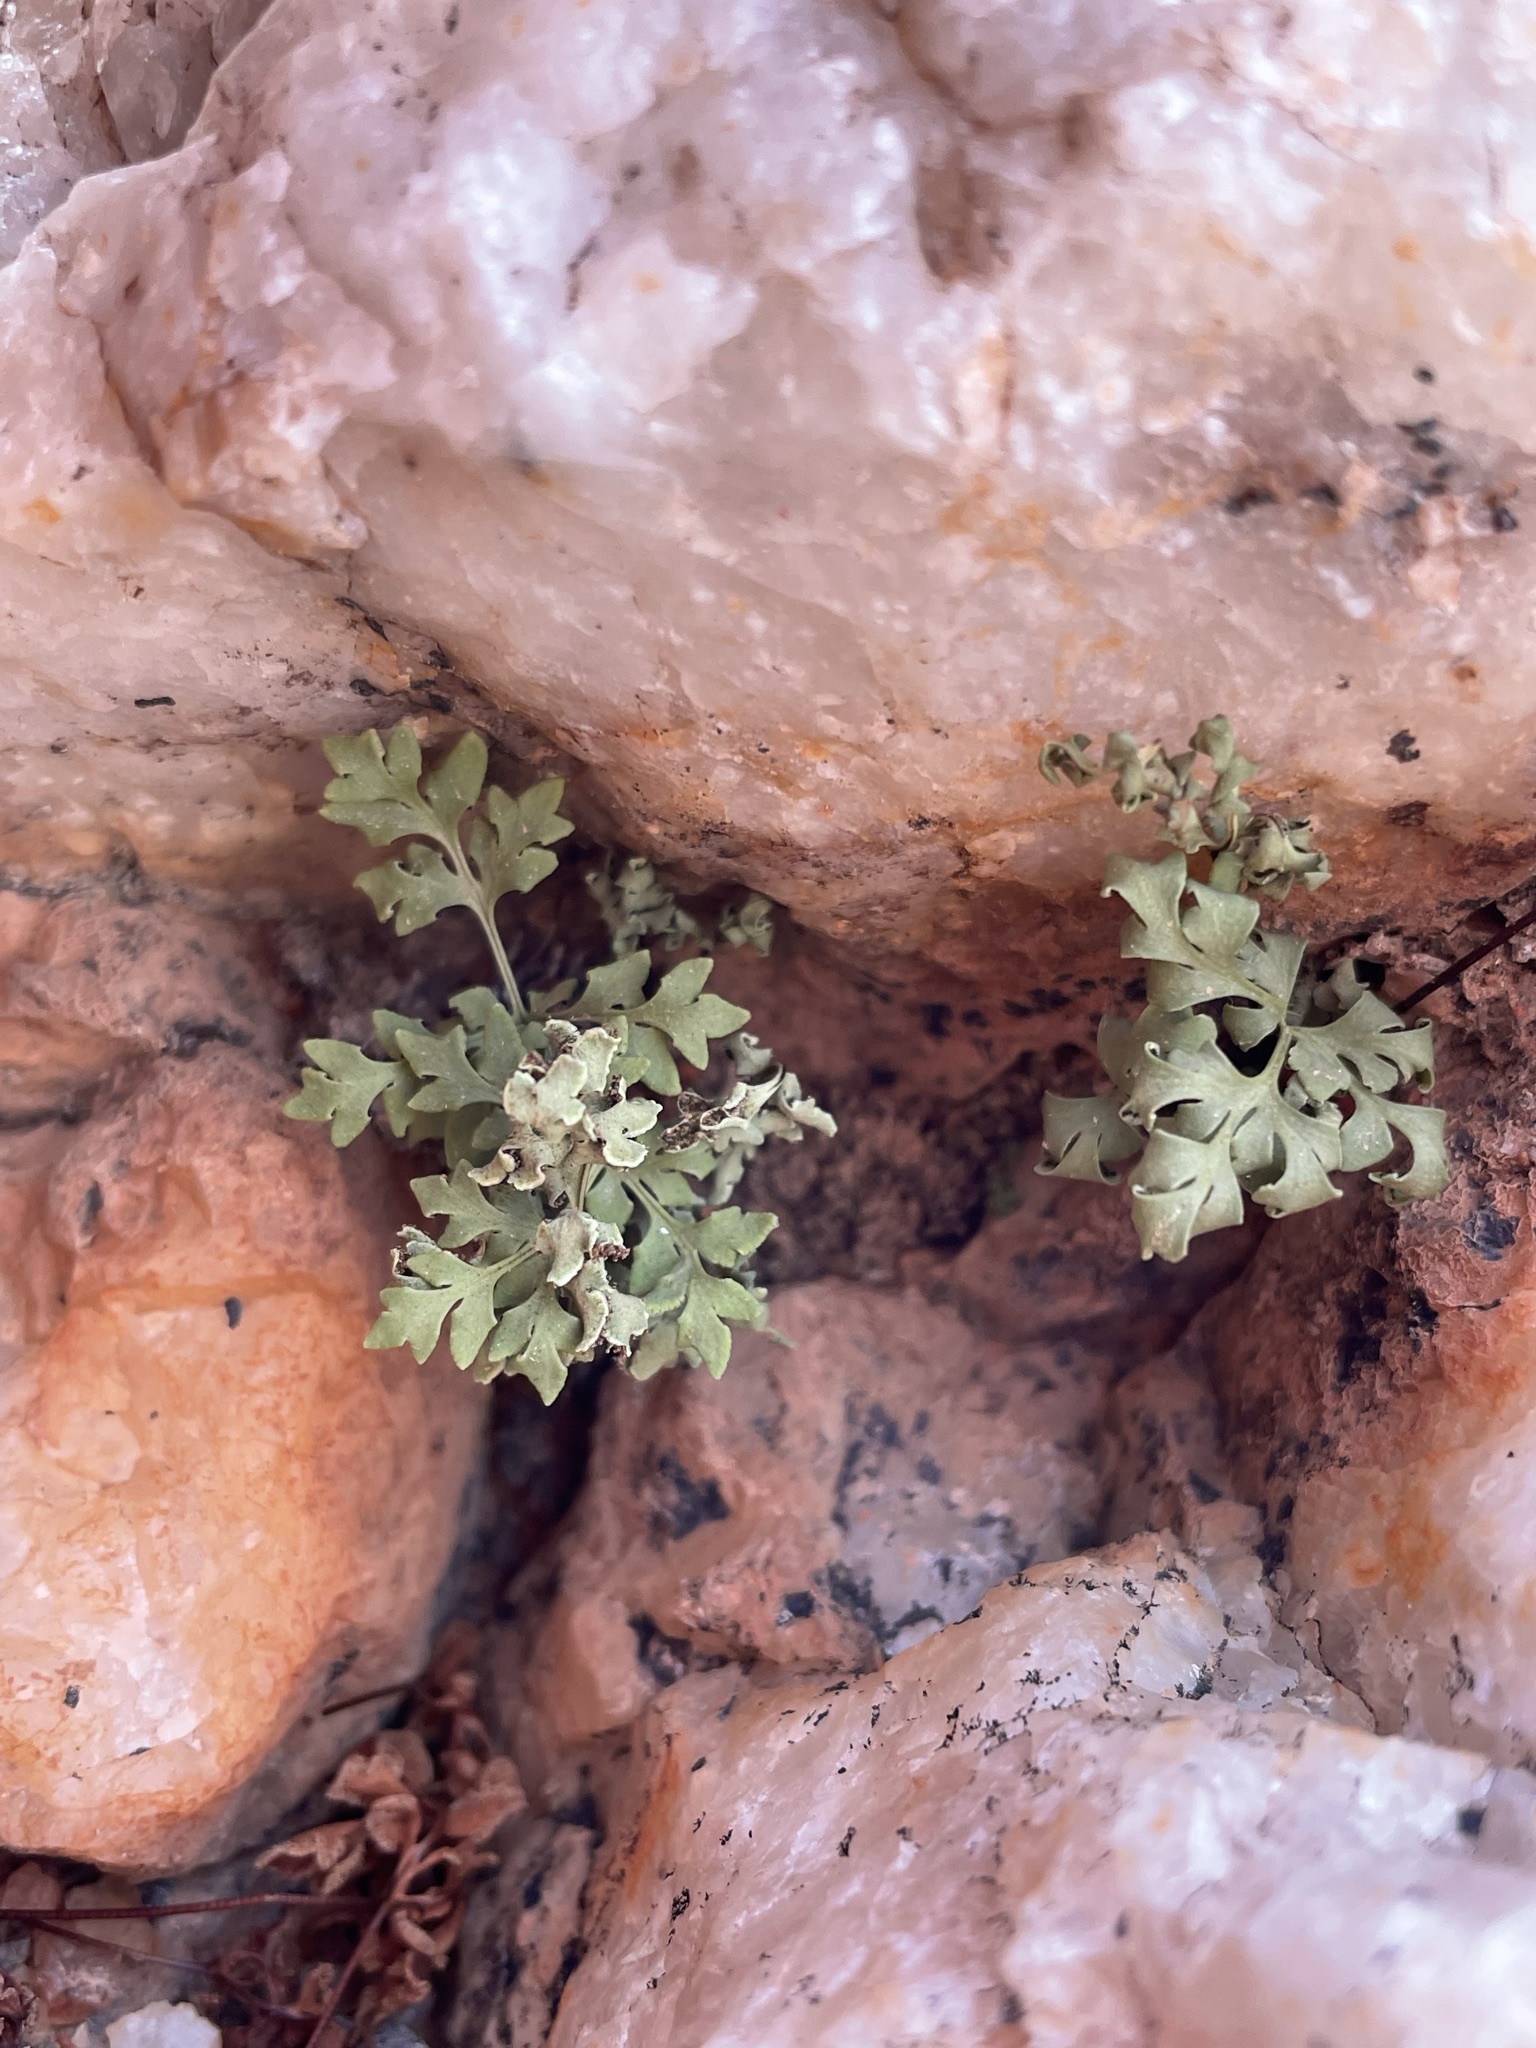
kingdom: Plantae
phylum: Tracheophyta
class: Polypodiopsida
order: Polypodiales
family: Pteridaceae
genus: Cheilanthes
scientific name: Cheilanthes deltoidea
